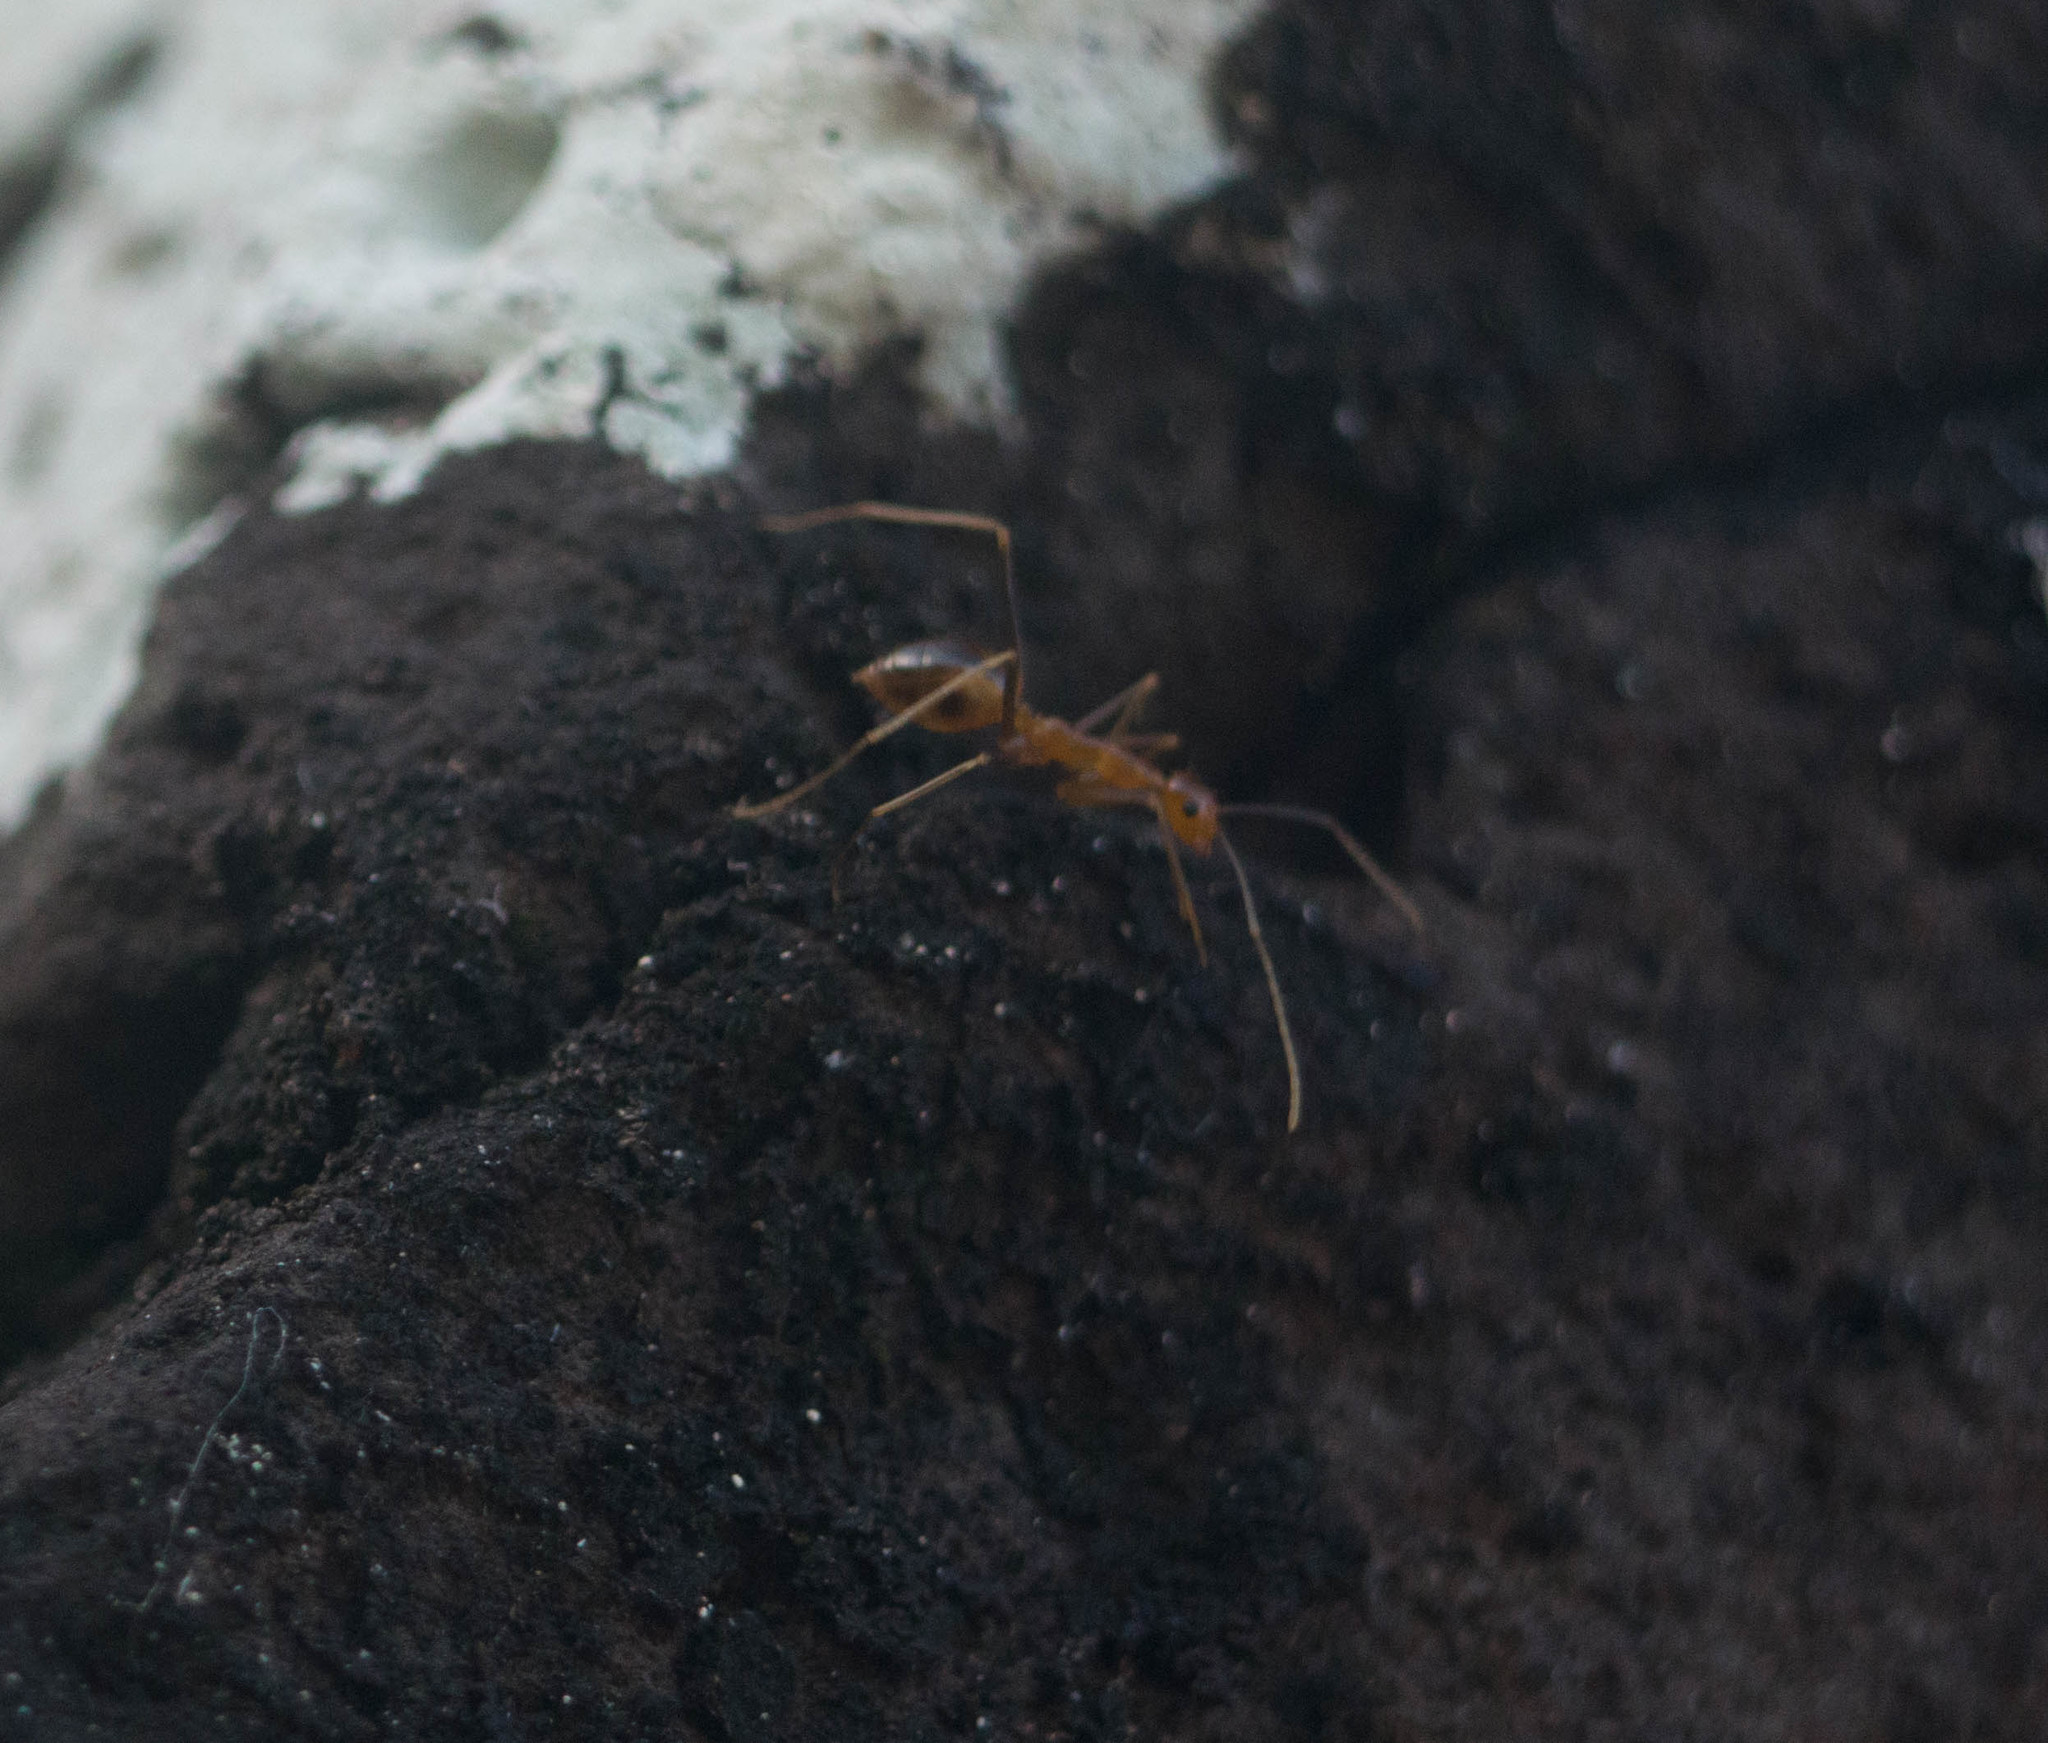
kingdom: Animalia
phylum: Arthropoda
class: Insecta
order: Hymenoptera
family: Formicidae
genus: Anoplolepis
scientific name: Anoplolepis gracilipes
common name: Ant
